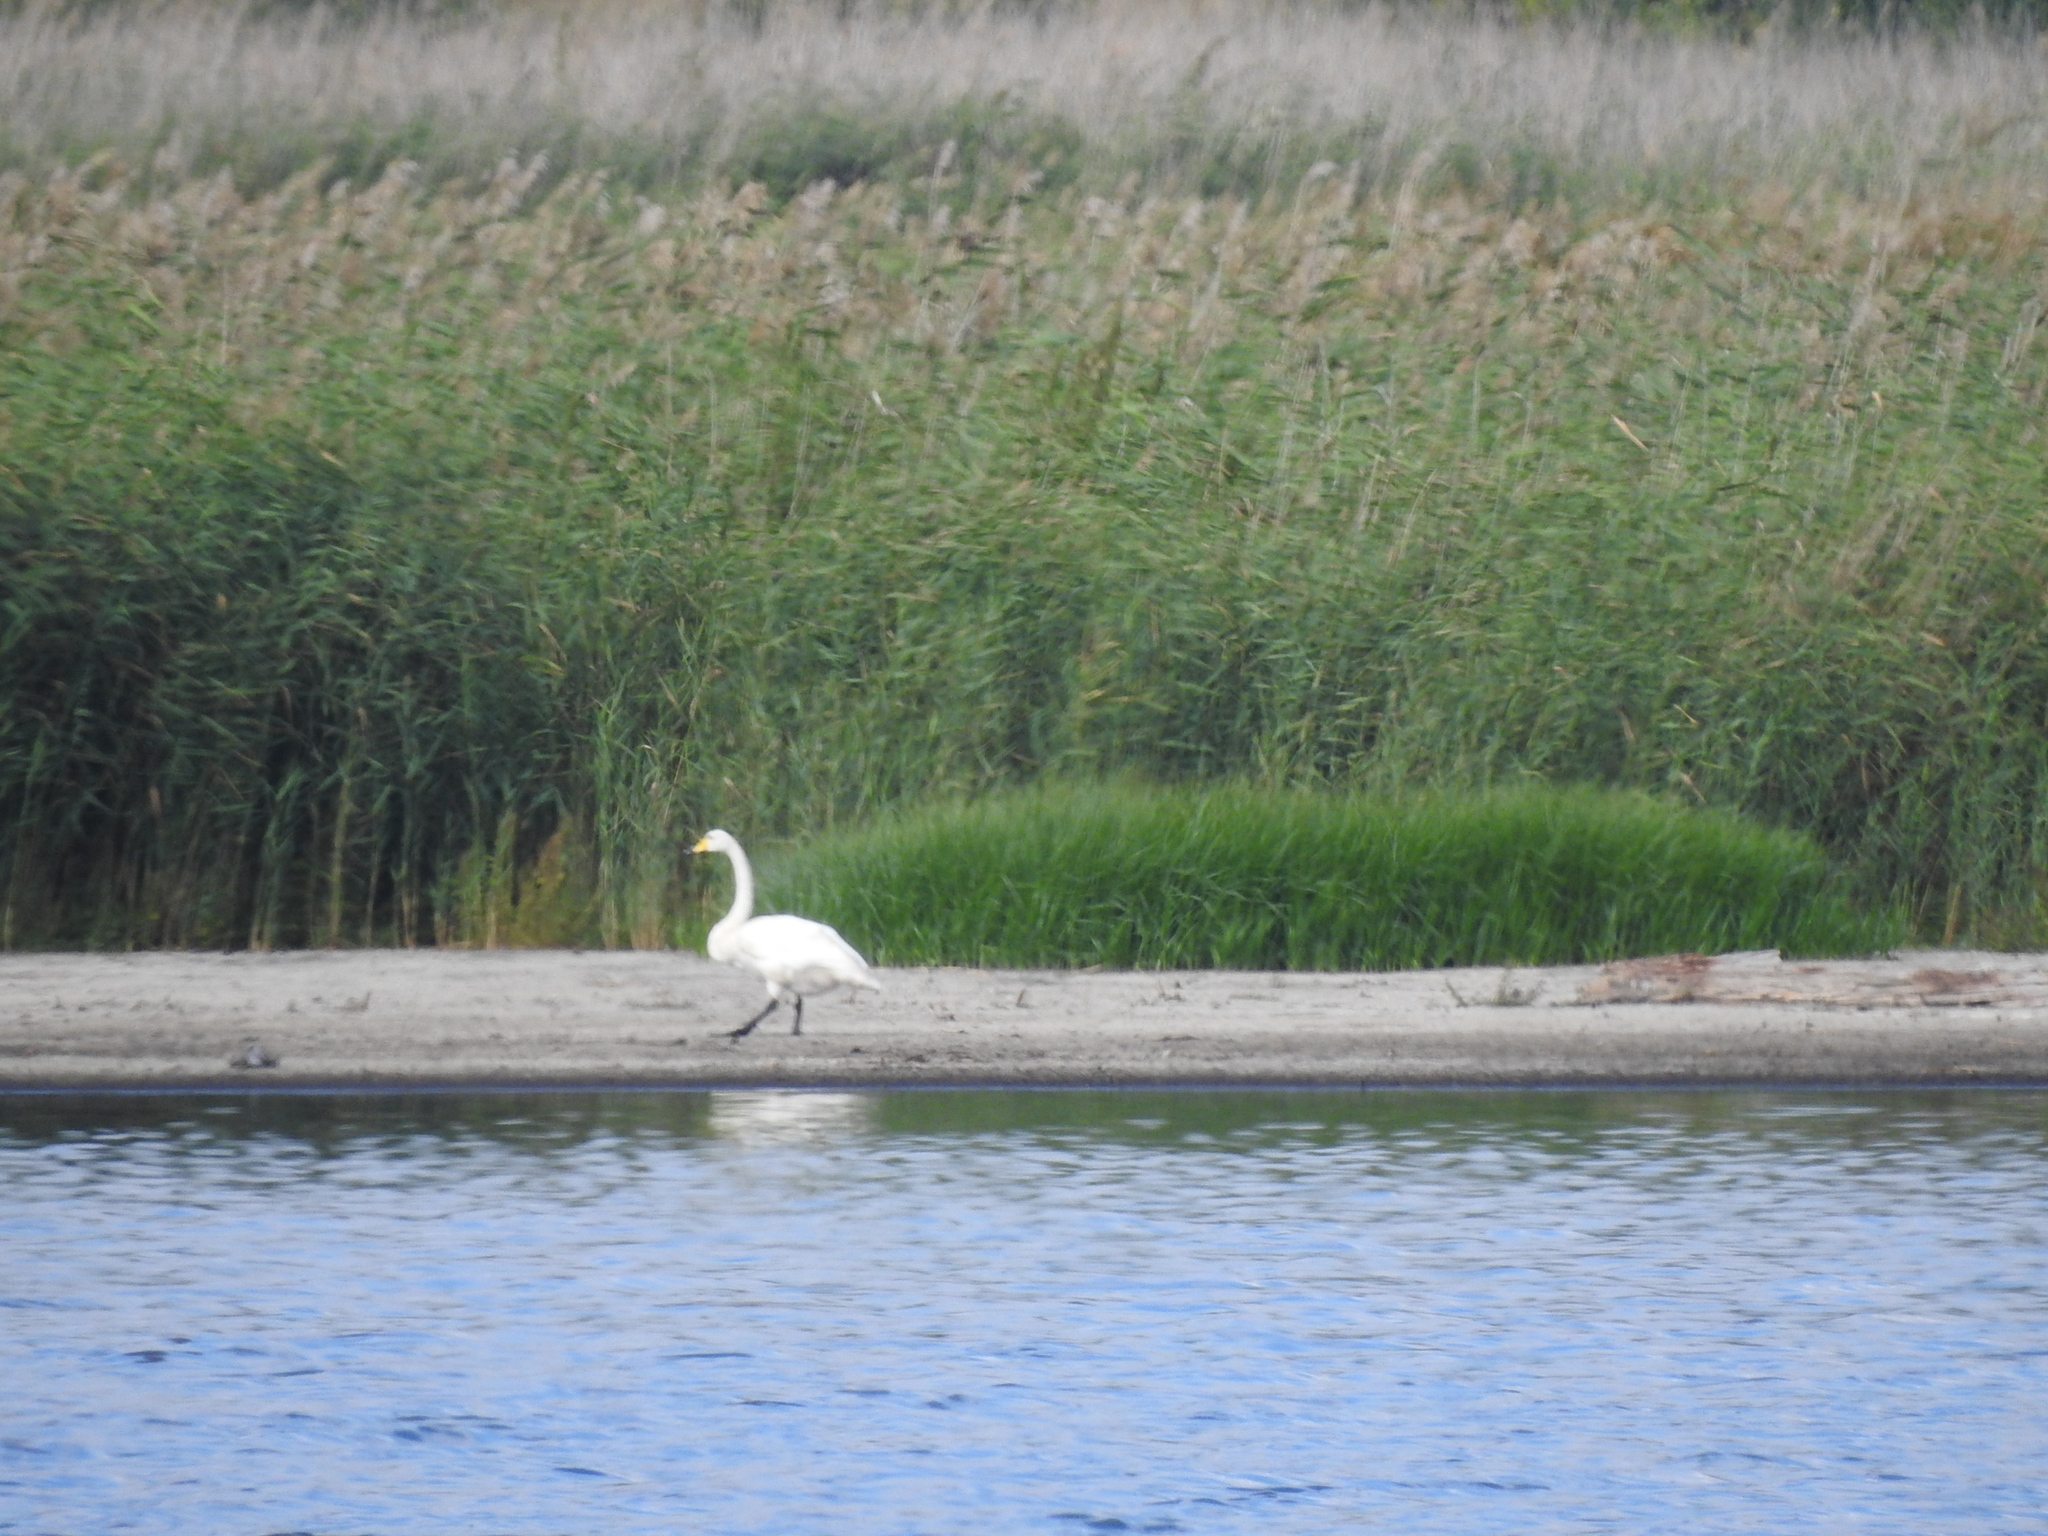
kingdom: Animalia
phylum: Chordata
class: Aves
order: Anseriformes
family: Anatidae
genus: Cygnus
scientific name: Cygnus cygnus
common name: Whooper swan
